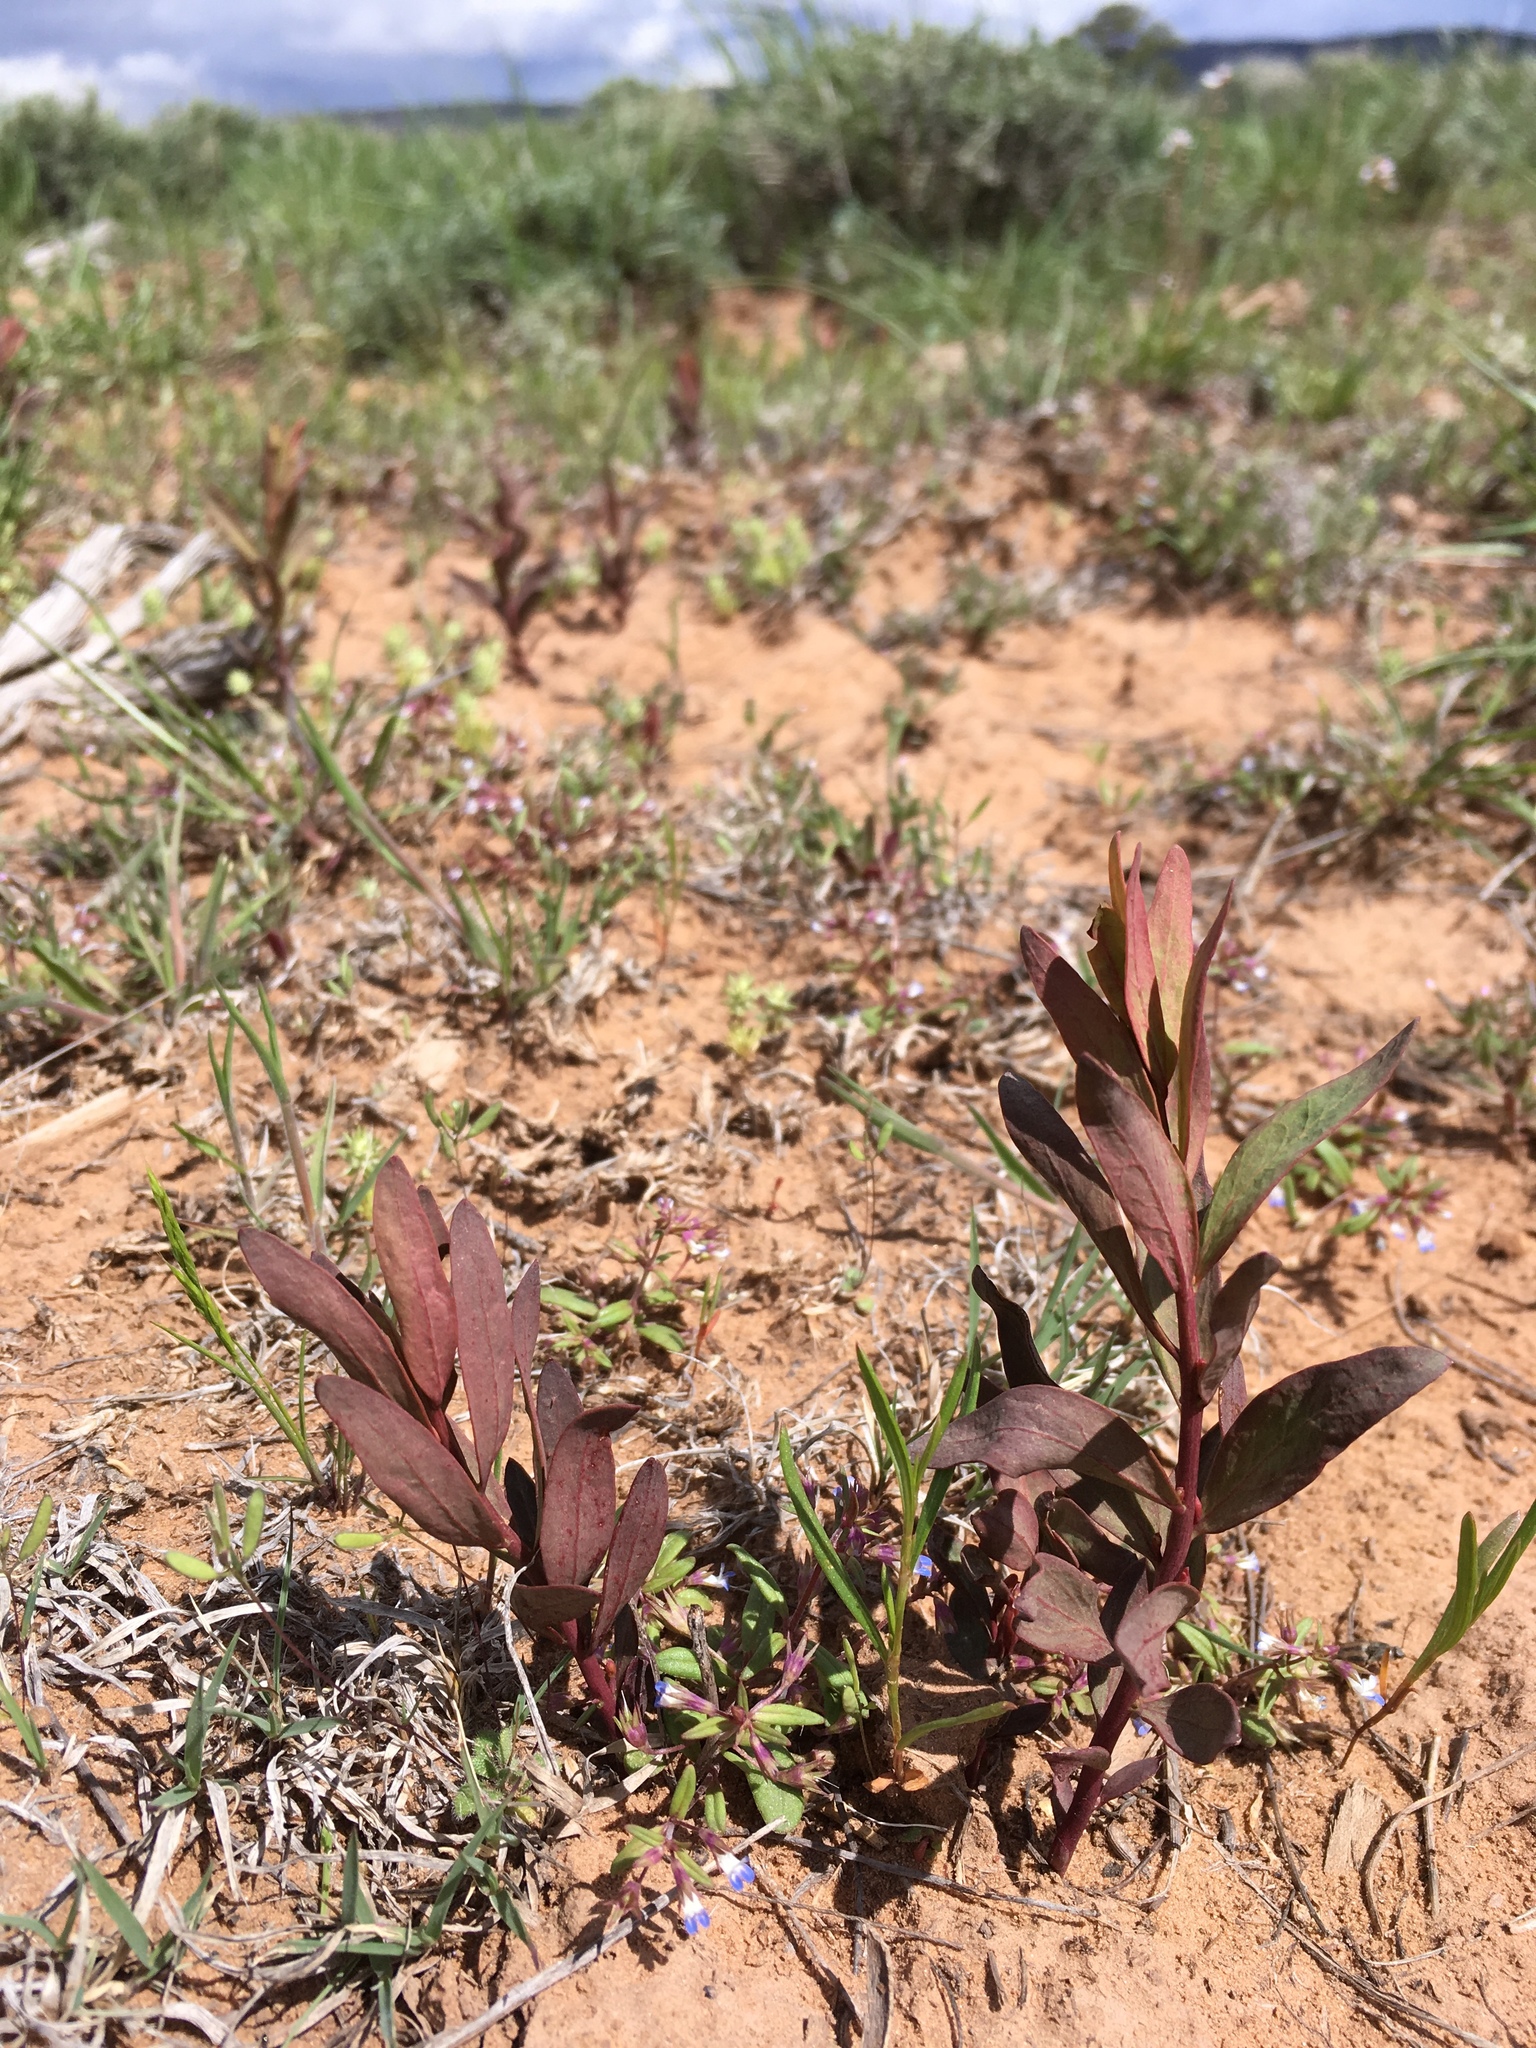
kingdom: Plantae
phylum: Tracheophyta
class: Magnoliopsida
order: Santalales
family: Comandraceae
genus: Comandra
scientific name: Comandra umbellata
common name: Bastard toadflax
